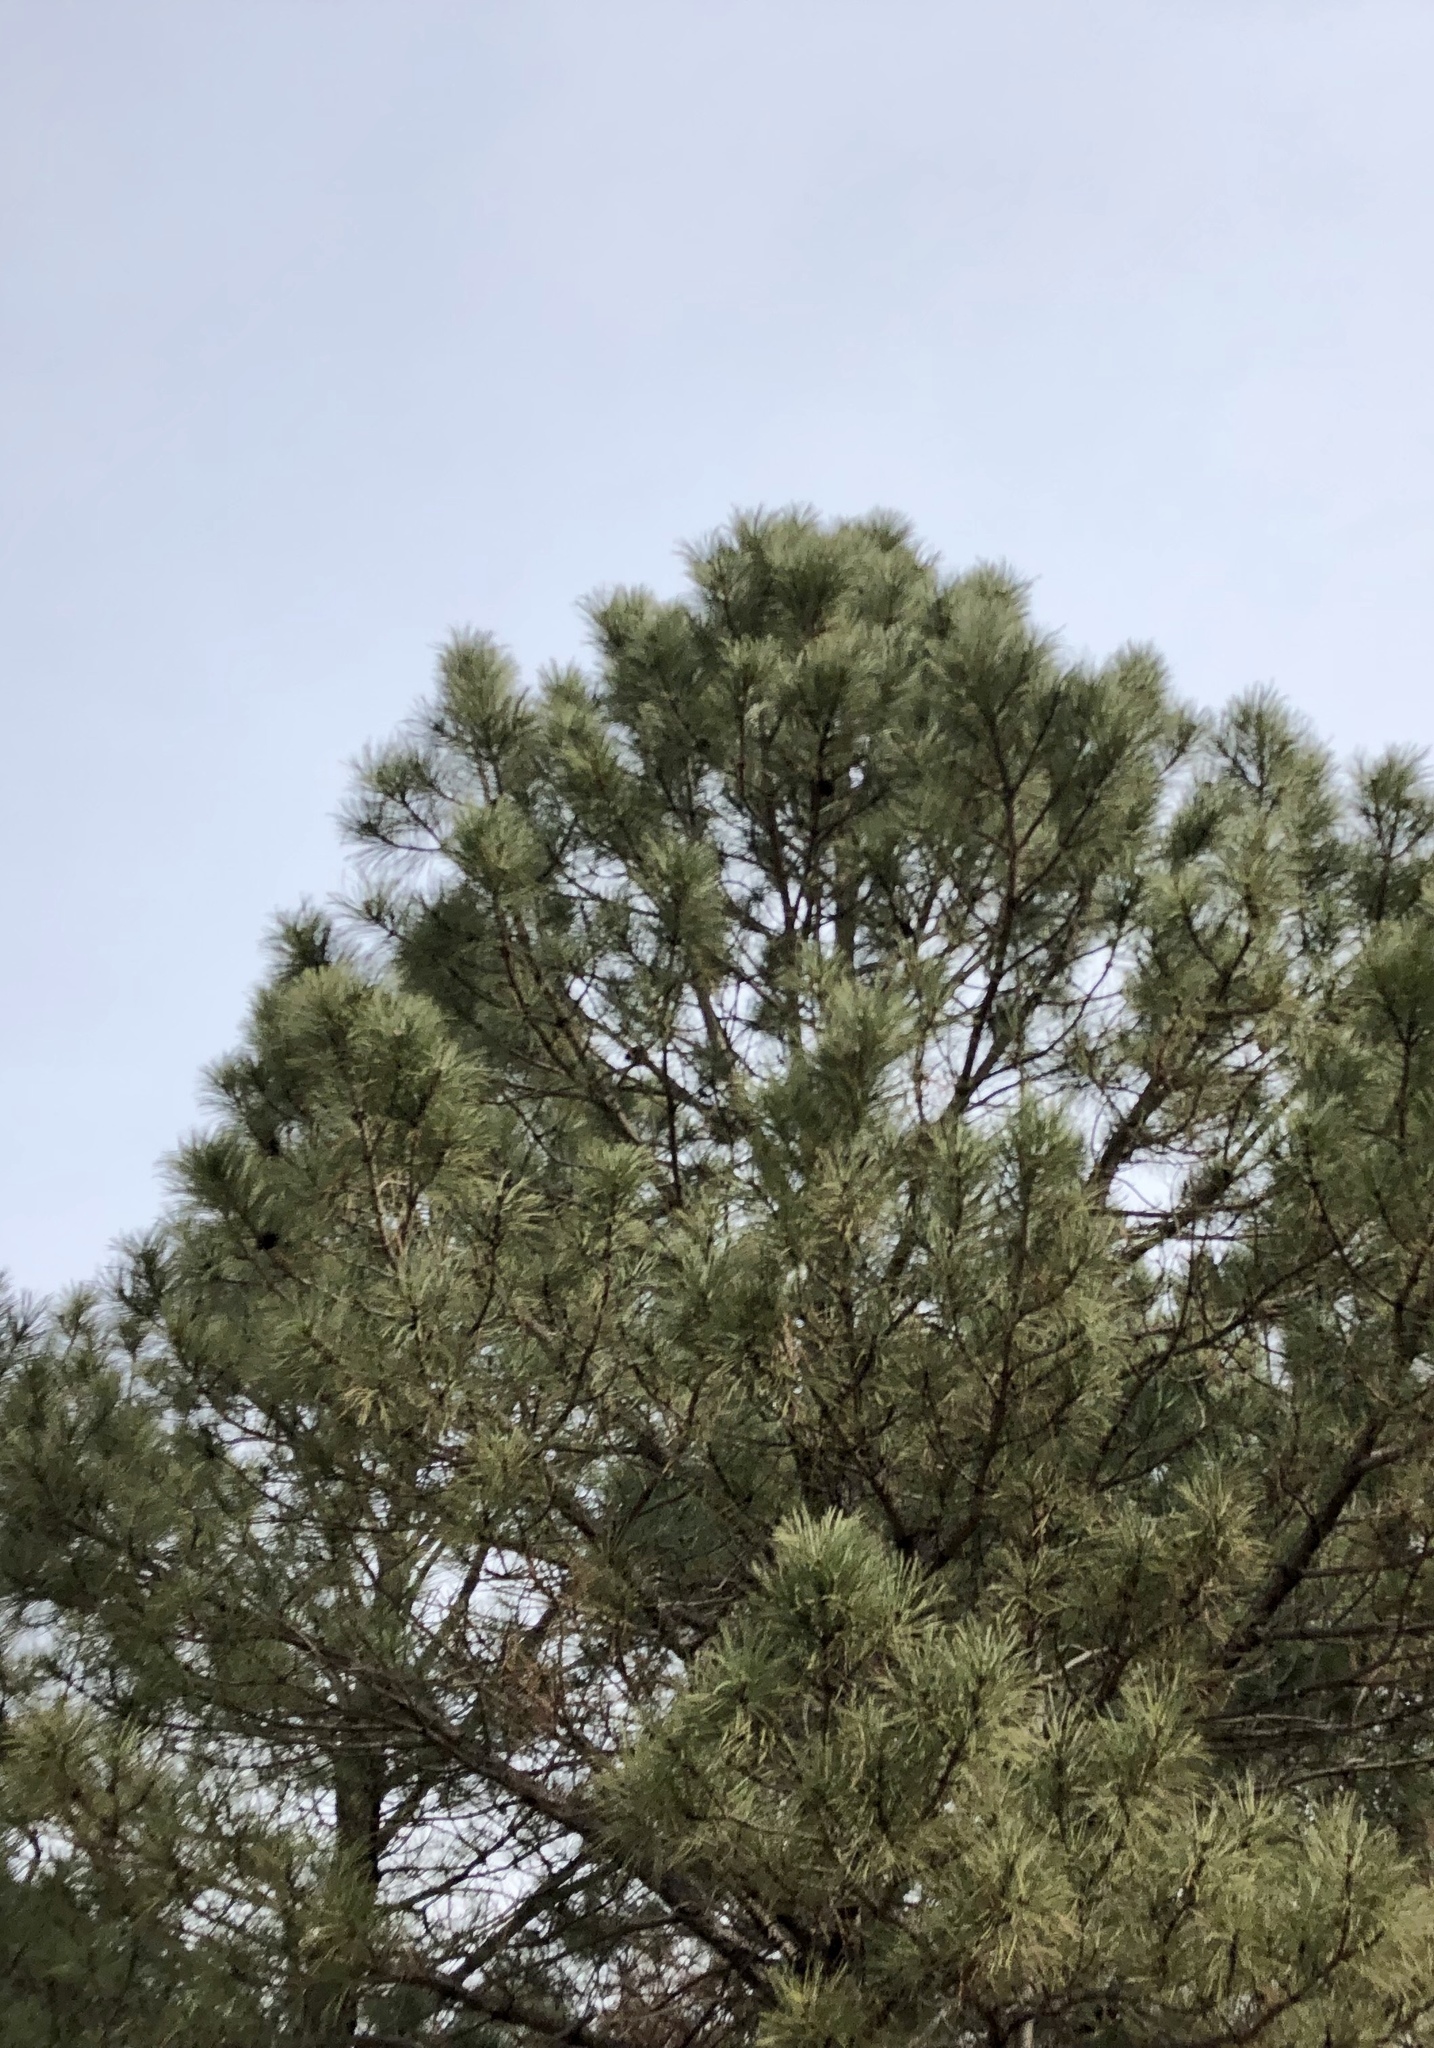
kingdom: Plantae
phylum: Tracheophyta
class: Pinopsida
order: Pinales
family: Pinaceae
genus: Pinus
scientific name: Pinus ponderosa
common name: Western yellow-pine
